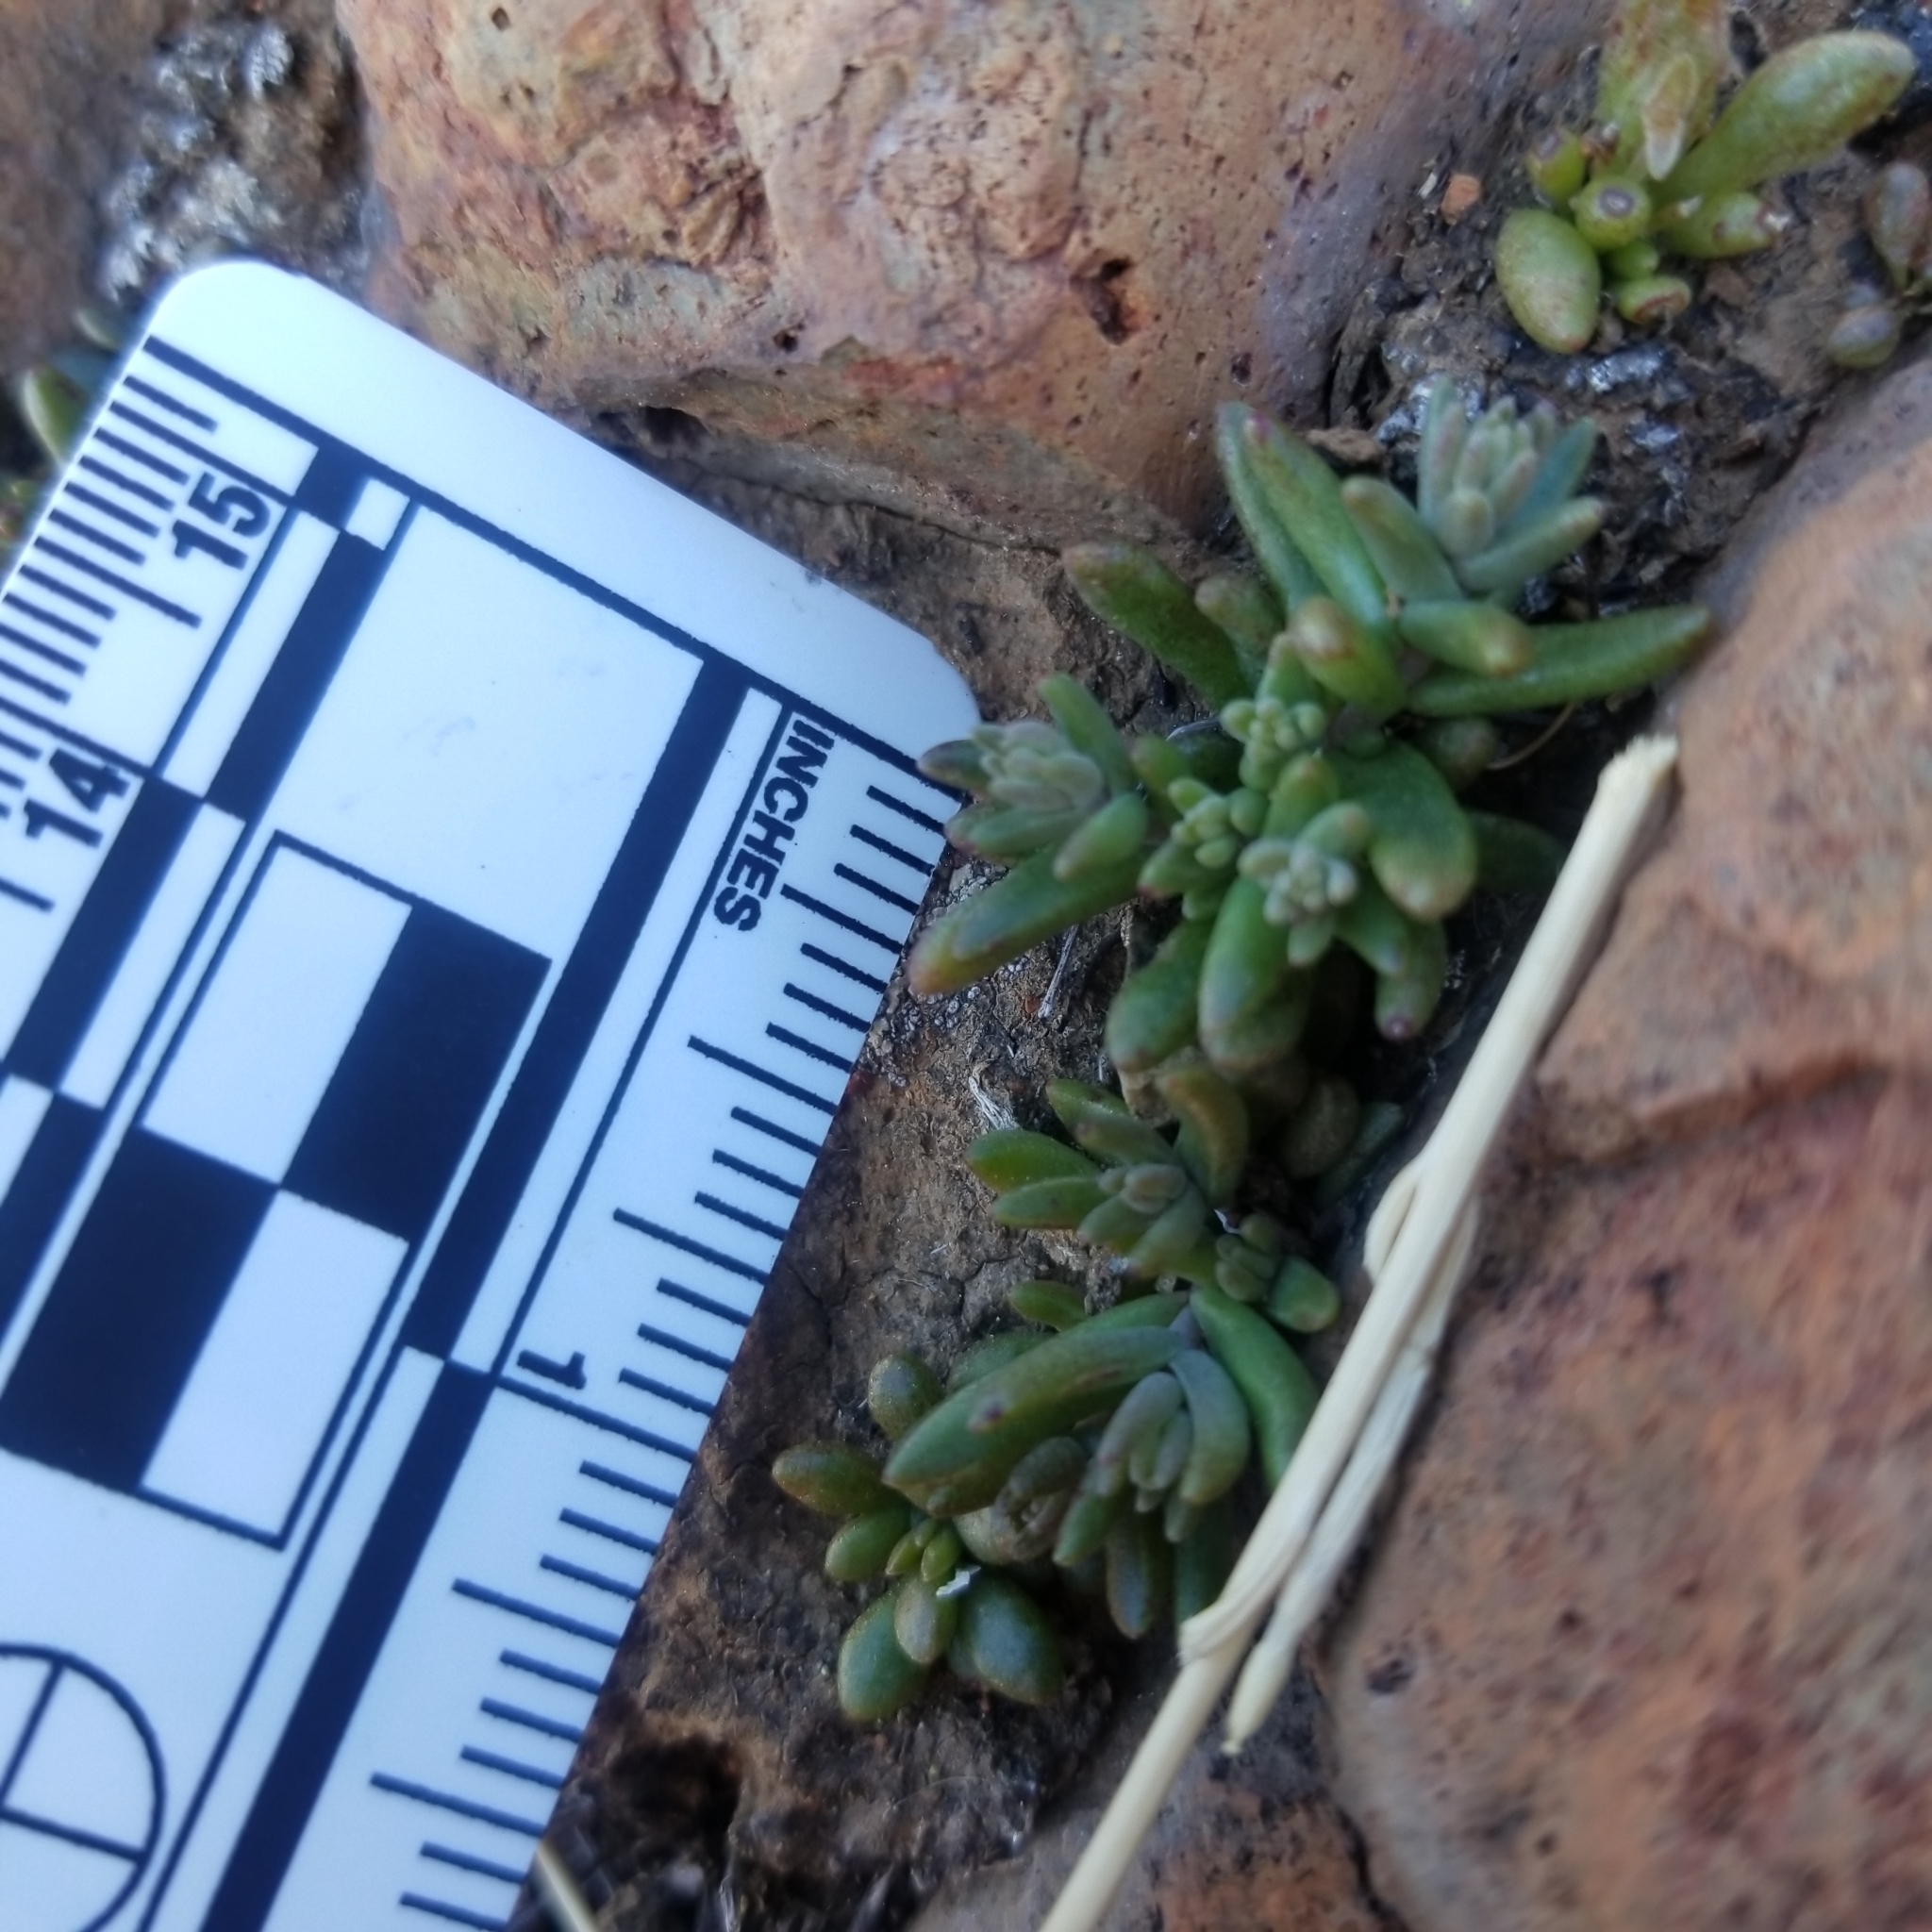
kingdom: Plantae
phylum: Tracheophyta
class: Magnoliopsida
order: Saxifragales
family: Crassulaceae
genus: Dudleya
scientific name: Dudleya variegata
